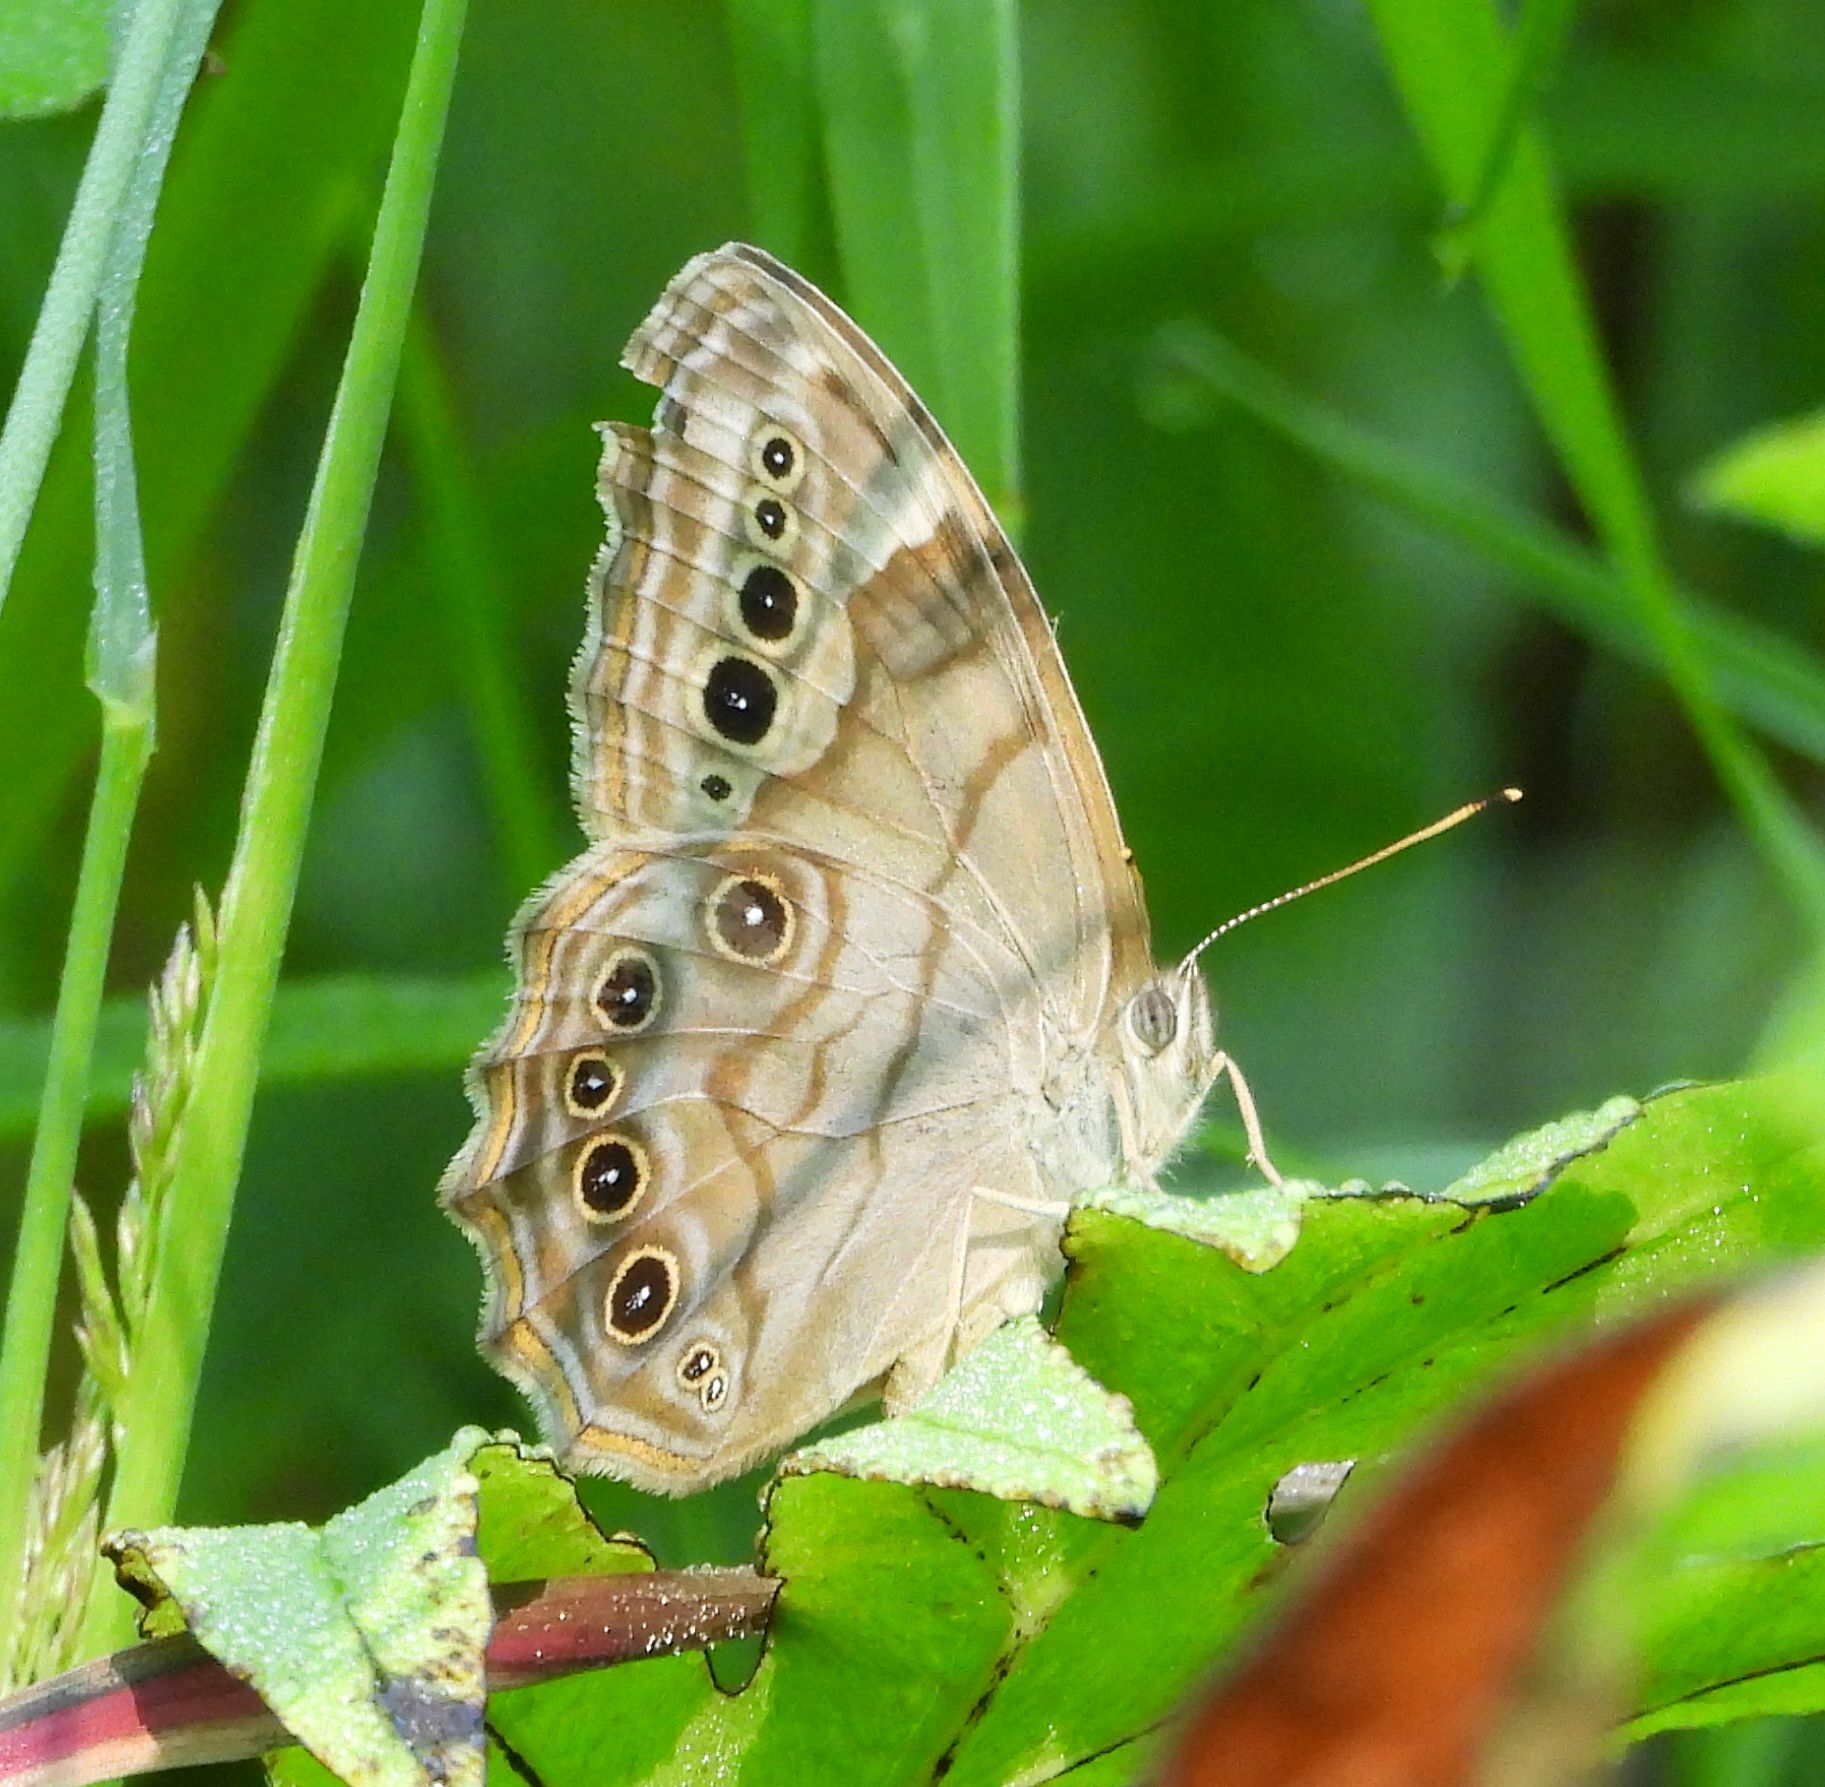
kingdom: Animalia
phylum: Arthropoda
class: Insecta
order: Lepidoptera
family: Nymphalidae
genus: Lethe
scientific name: Lethe anthedon
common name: Northern pearly-eye
